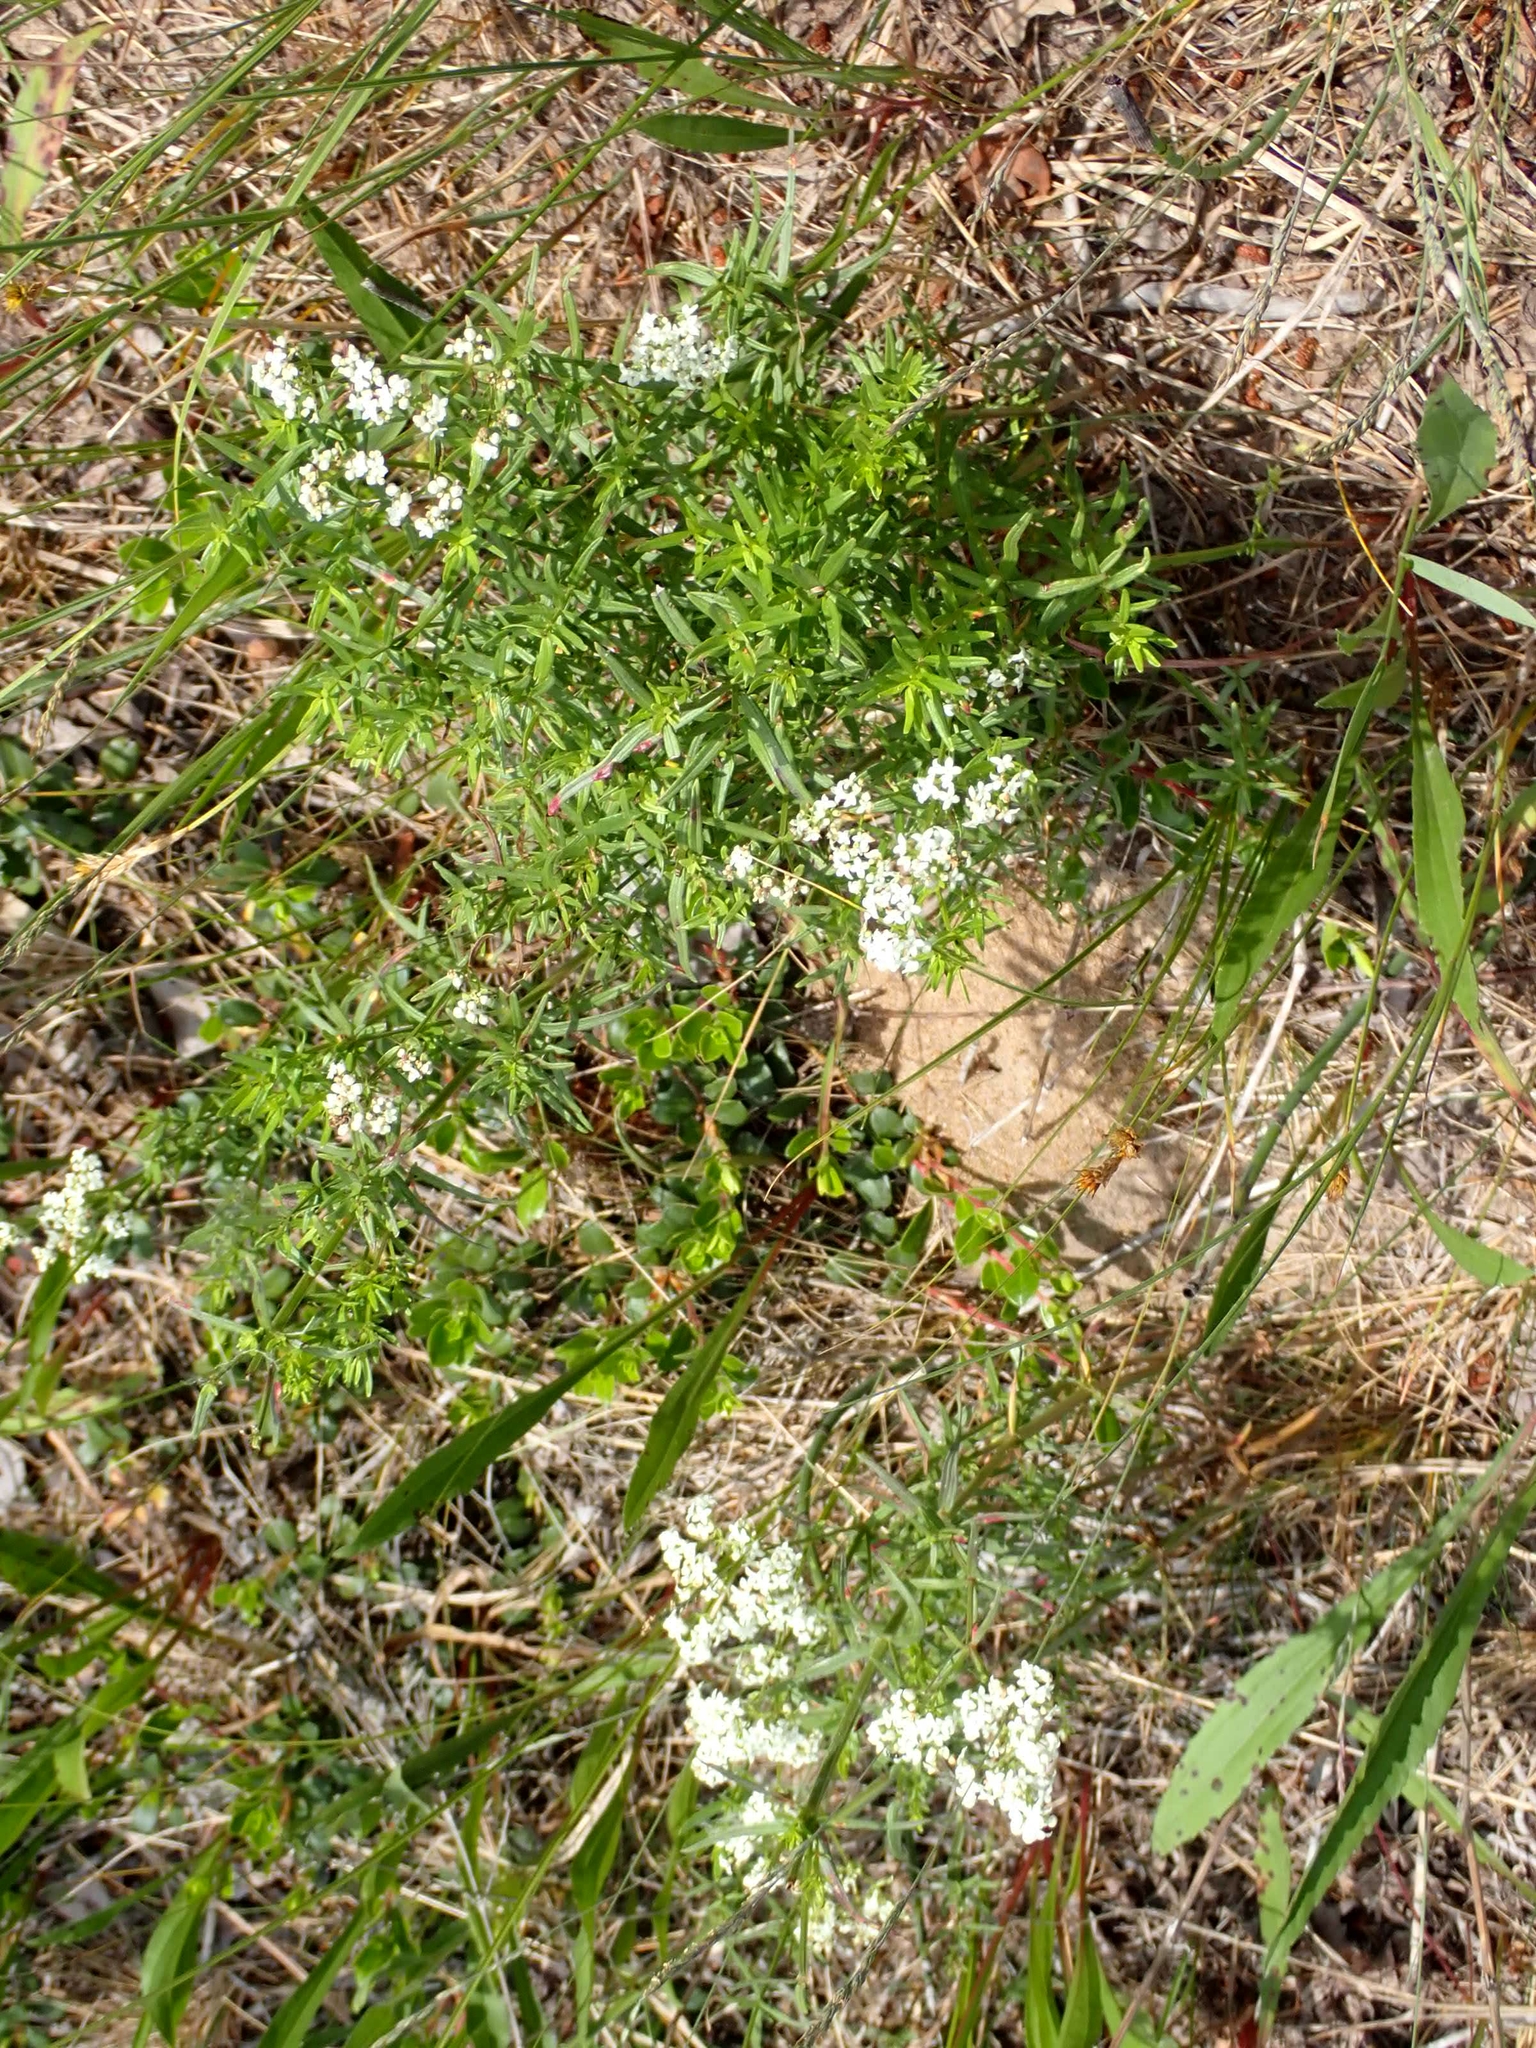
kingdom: Plantae
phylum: Tracheophyta
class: Magnoliopsida
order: Gentianales
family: Rubiaceae
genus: Galium
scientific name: Galium boreale
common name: Northern bedstraw
